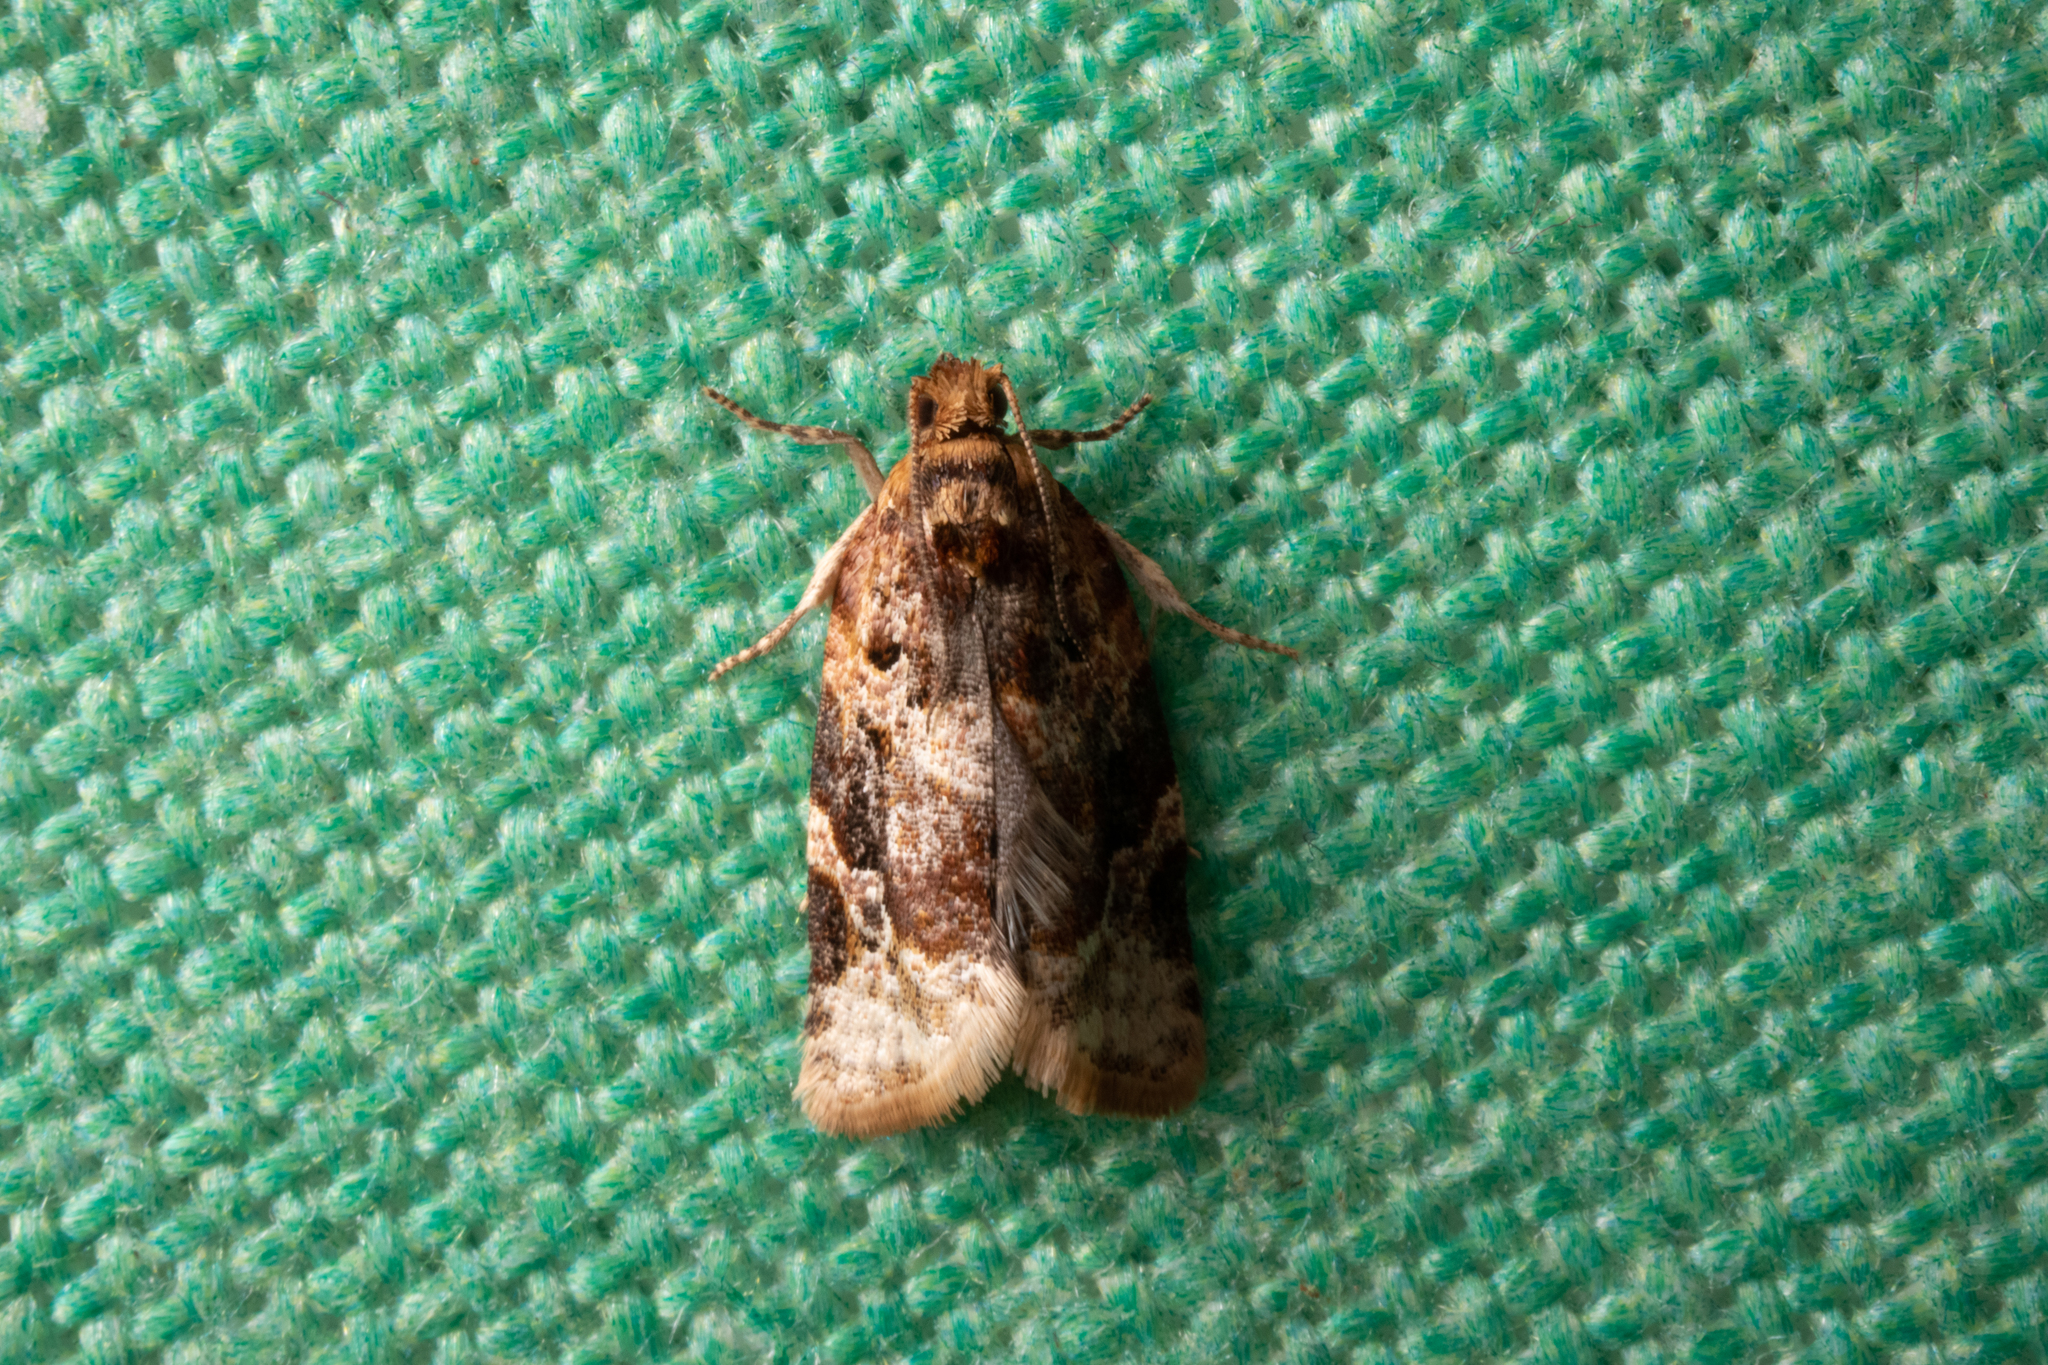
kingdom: Animalia
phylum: Arthropoda
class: Insecta
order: Lepidoptera
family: Tortricidae
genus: Argyrotaenia
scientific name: Argyrotaenia velutinana
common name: Red-banded leafroller moth
